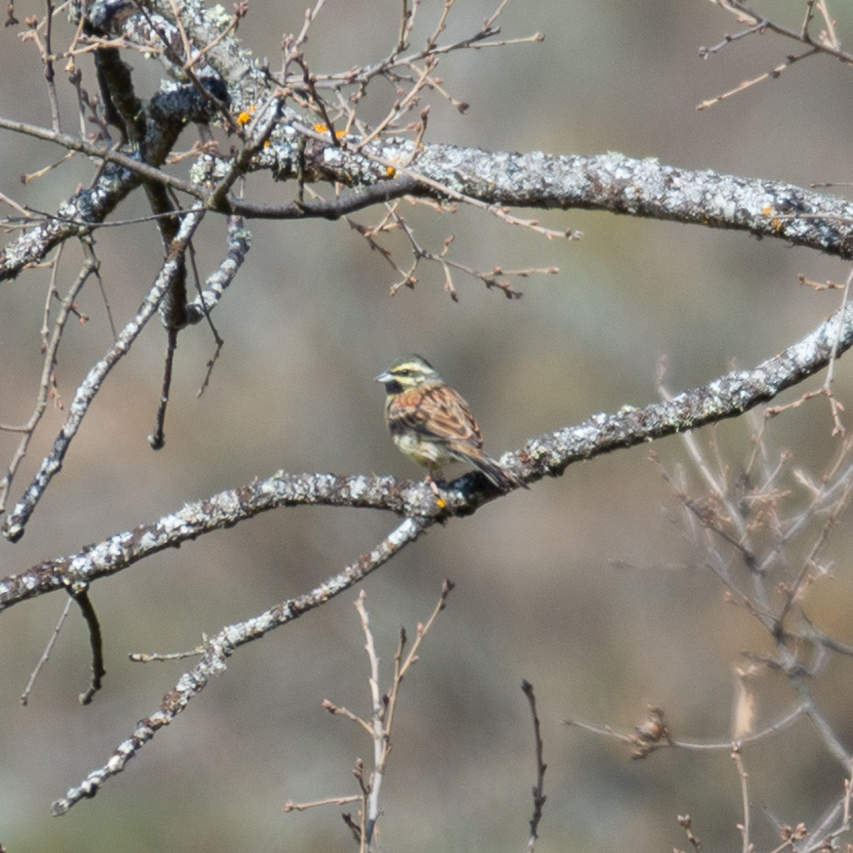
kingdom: Animalia
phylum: Chordata
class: Aves
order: Passeriformes
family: Emberizidae
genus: Emberiza
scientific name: Emberiza cirlus
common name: Cirl bunting
